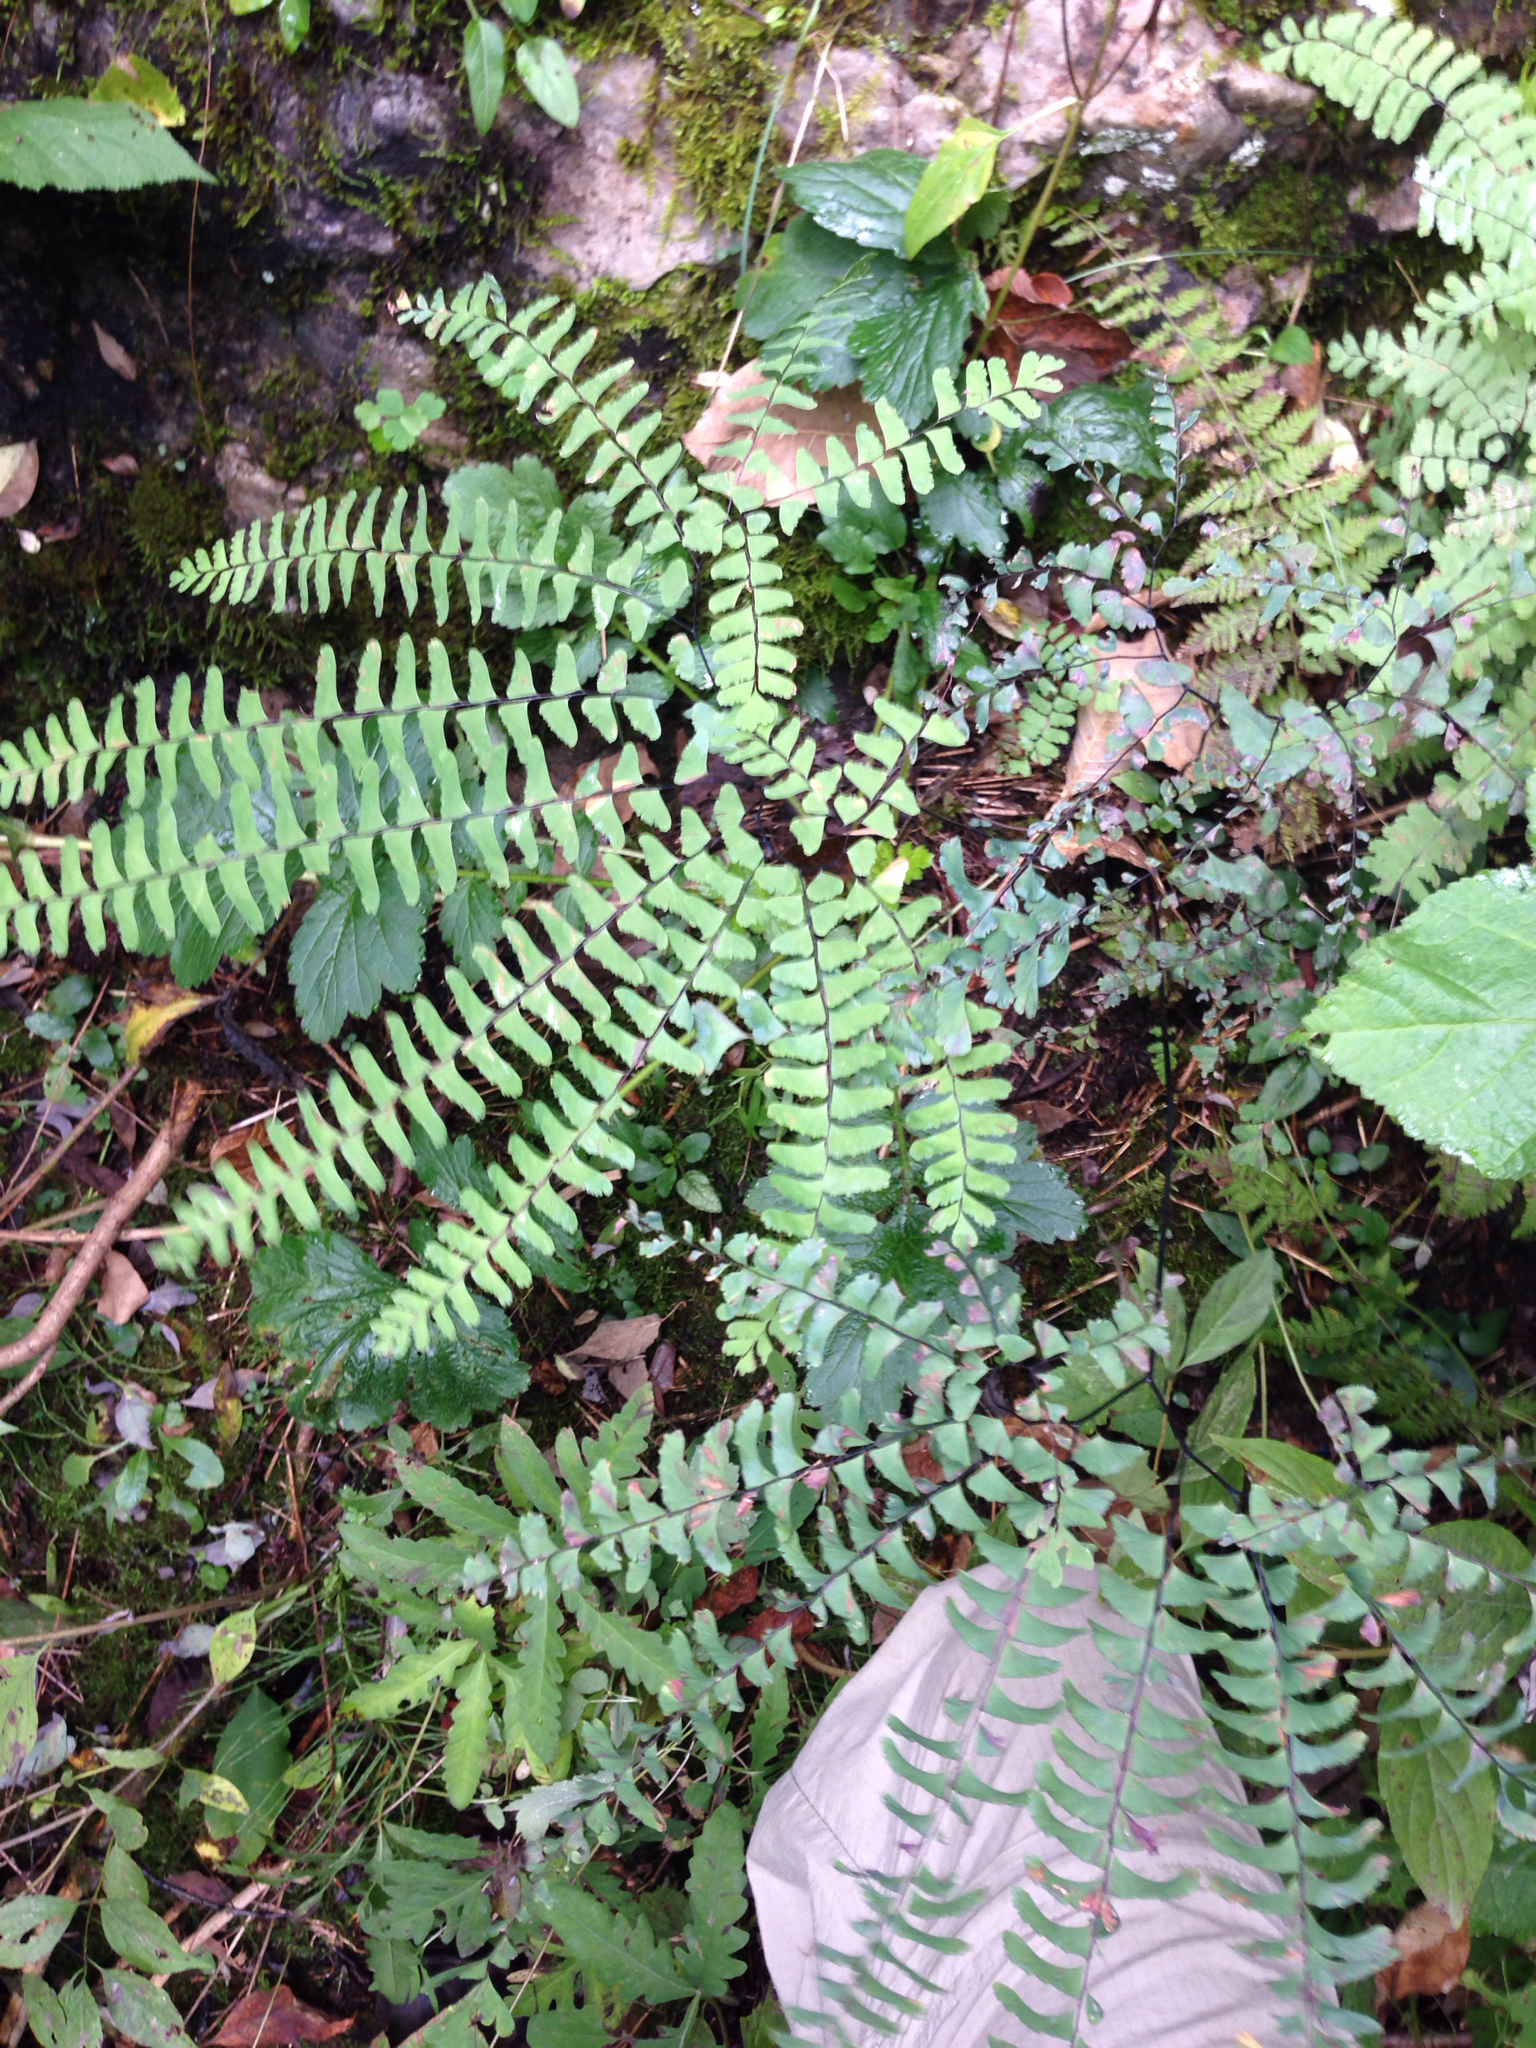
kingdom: Plantae
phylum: Tracheophyta
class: Polypodiopsida
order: Polypodiales
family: Pteridaceae
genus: Adiantum
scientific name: Adiantum pedatum
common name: Five-finger fern
